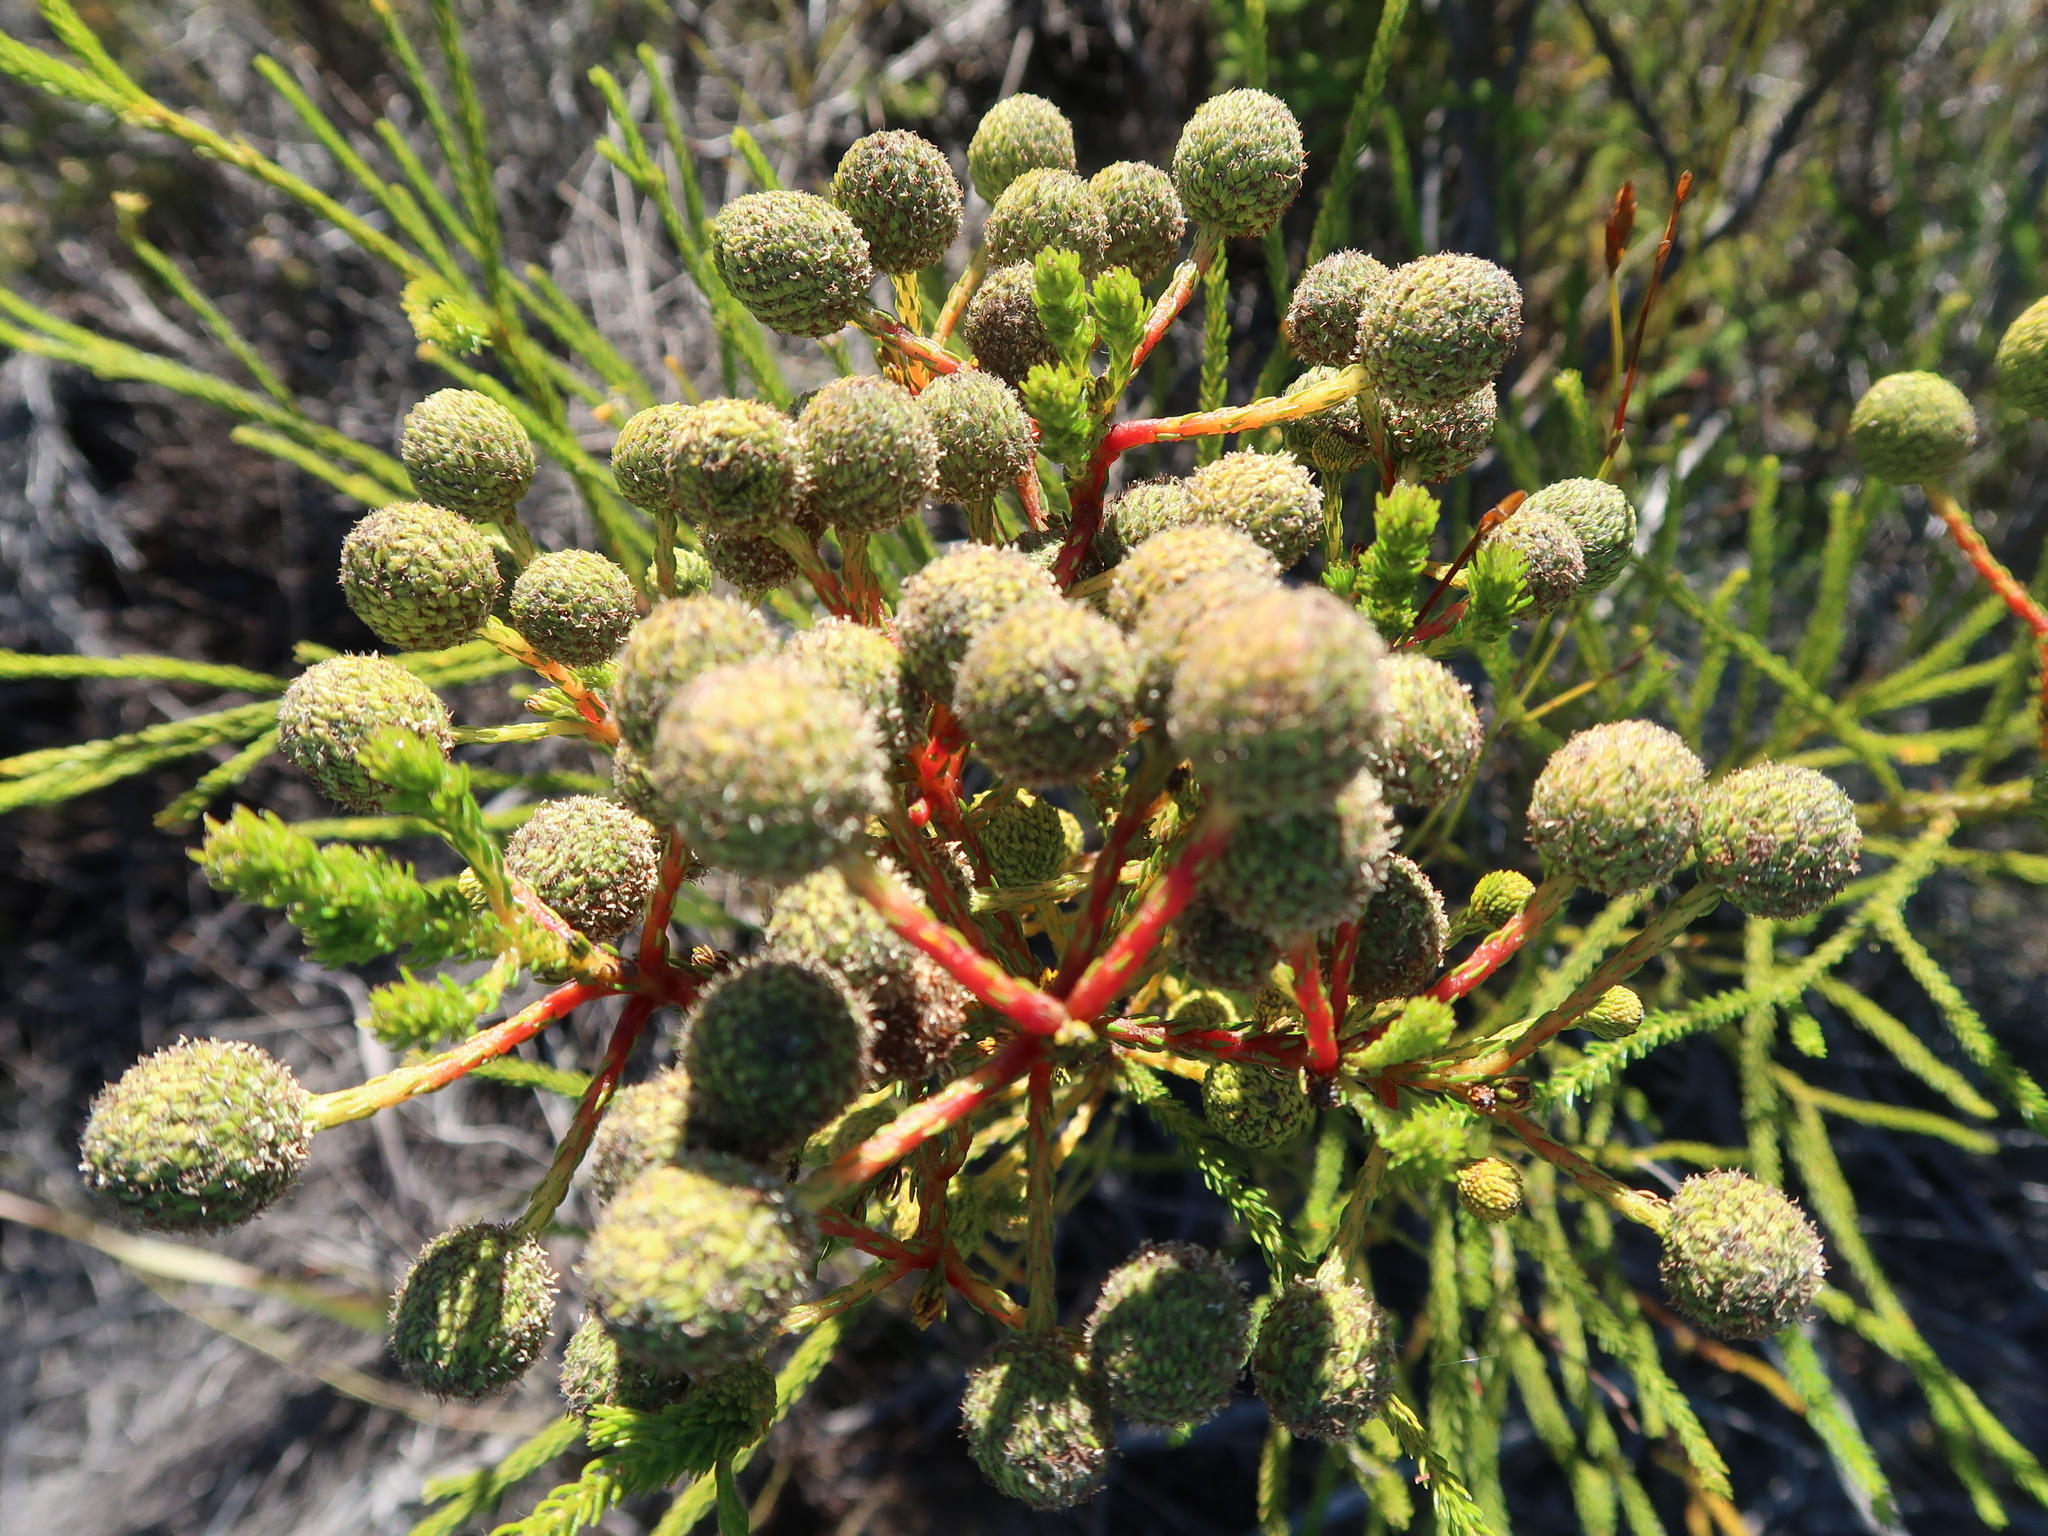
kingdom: Plantae
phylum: Tracheophyta
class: Magnoliopsida
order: Bruniales
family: Bruniaceae
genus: Berzelia
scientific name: Berzelia intermedia
